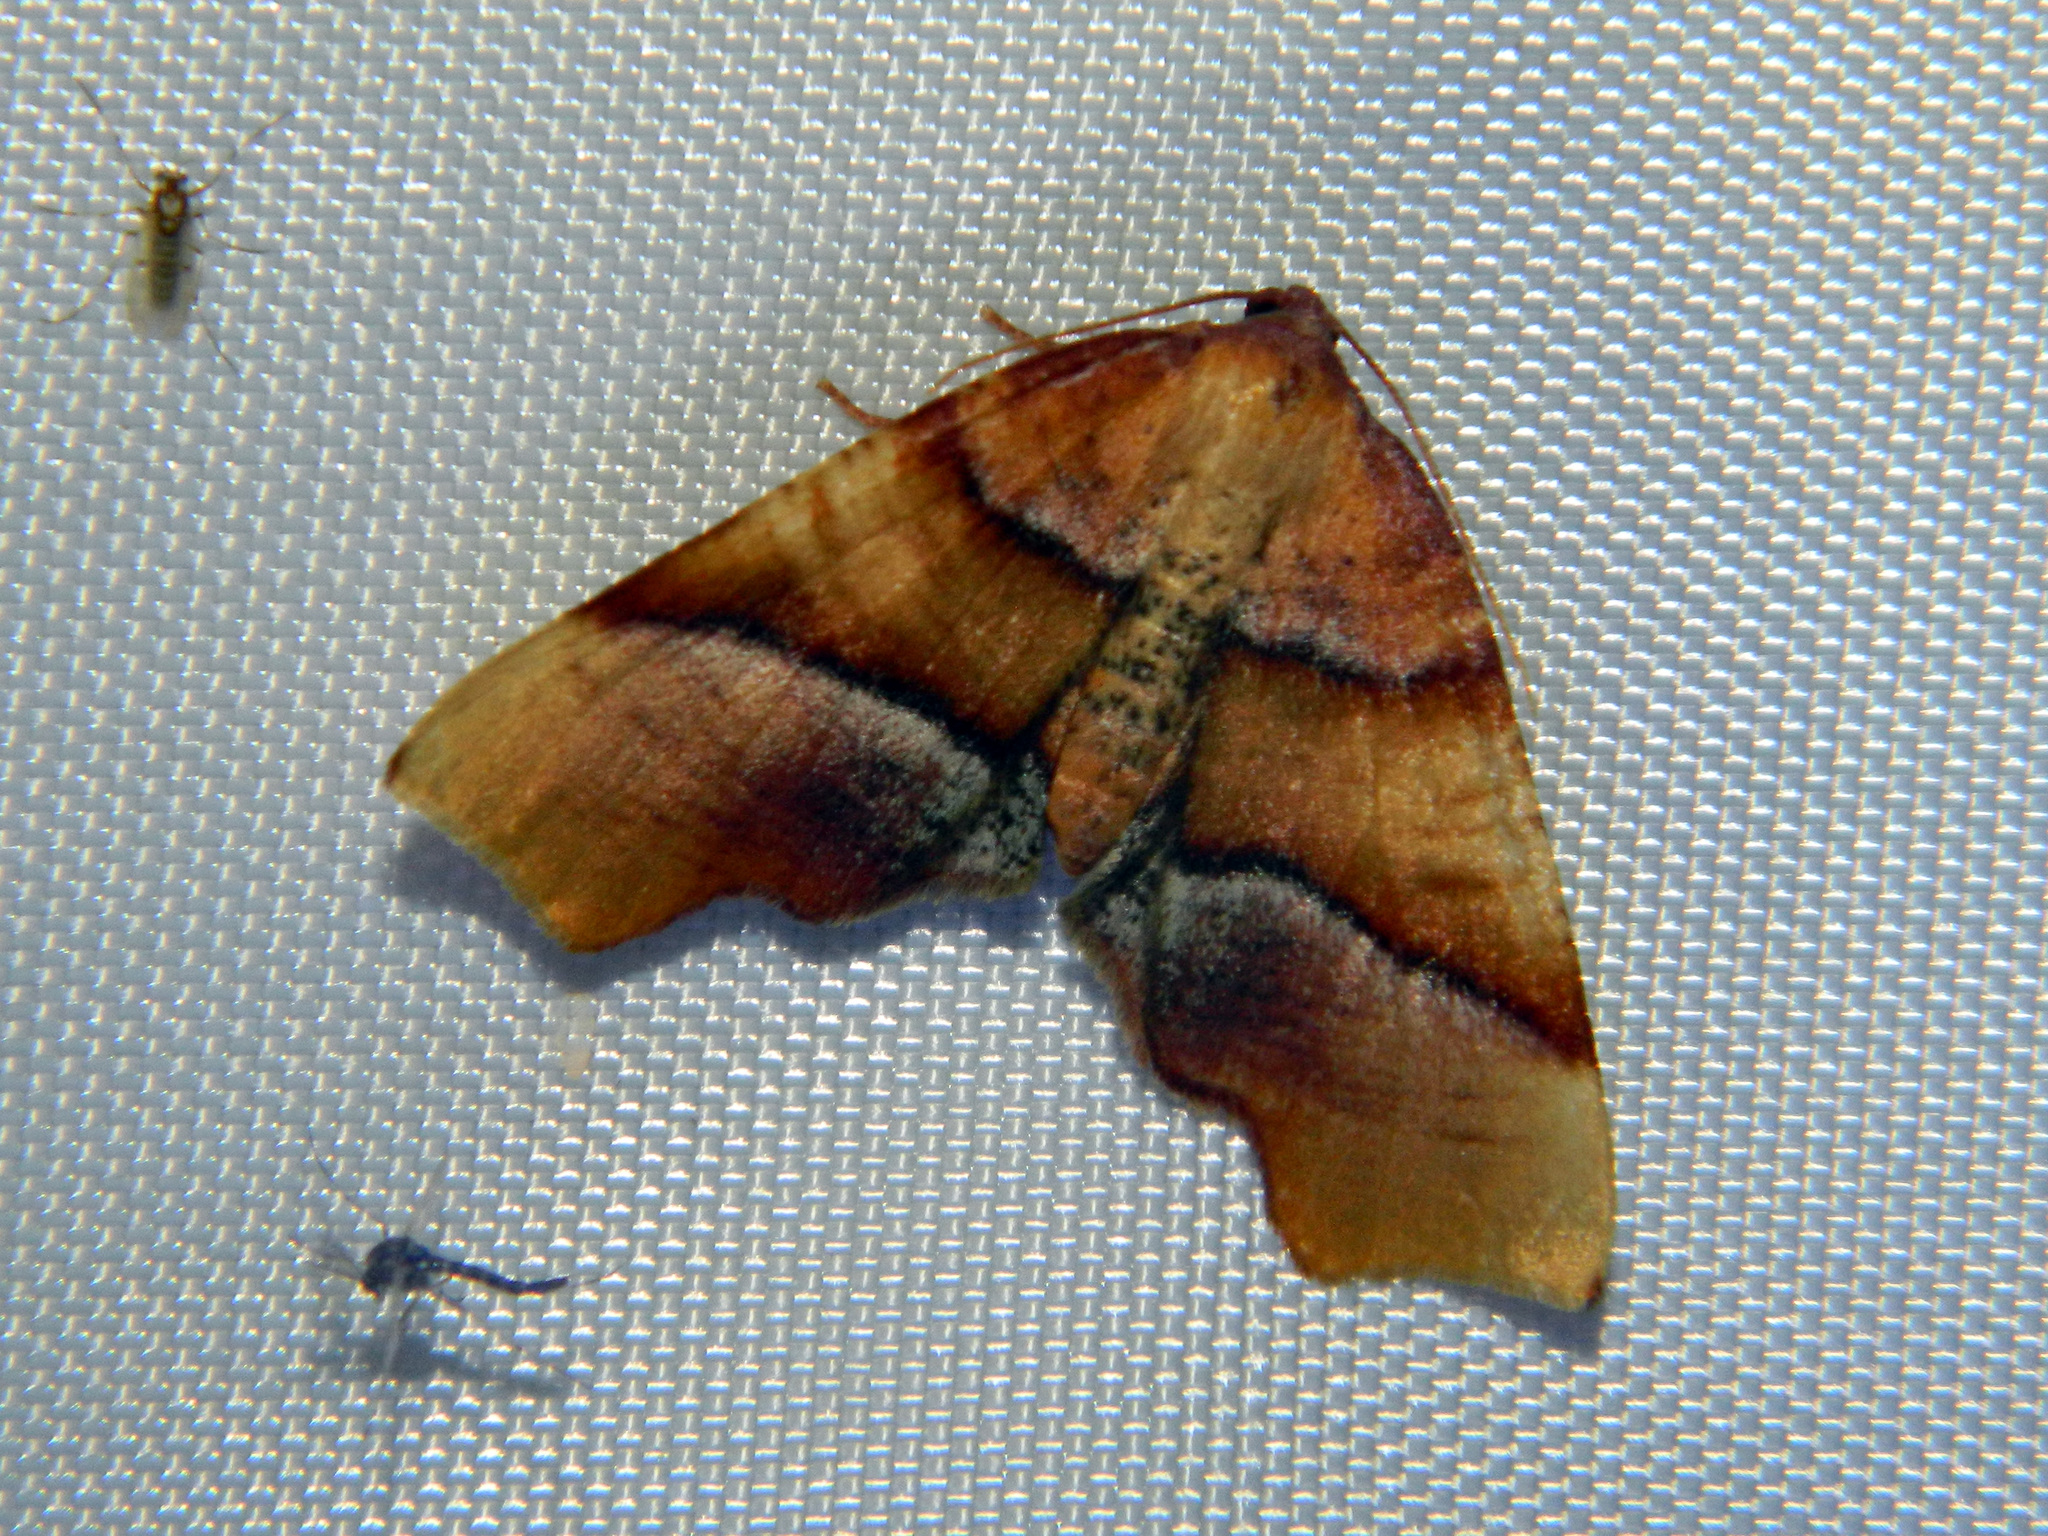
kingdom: Animalia
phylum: Arthropoda
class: Insecta
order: Lepidoptera
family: Geometridae
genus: Plagodis
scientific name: Plagodis phlogosaria
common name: Straight-lined plagodis
